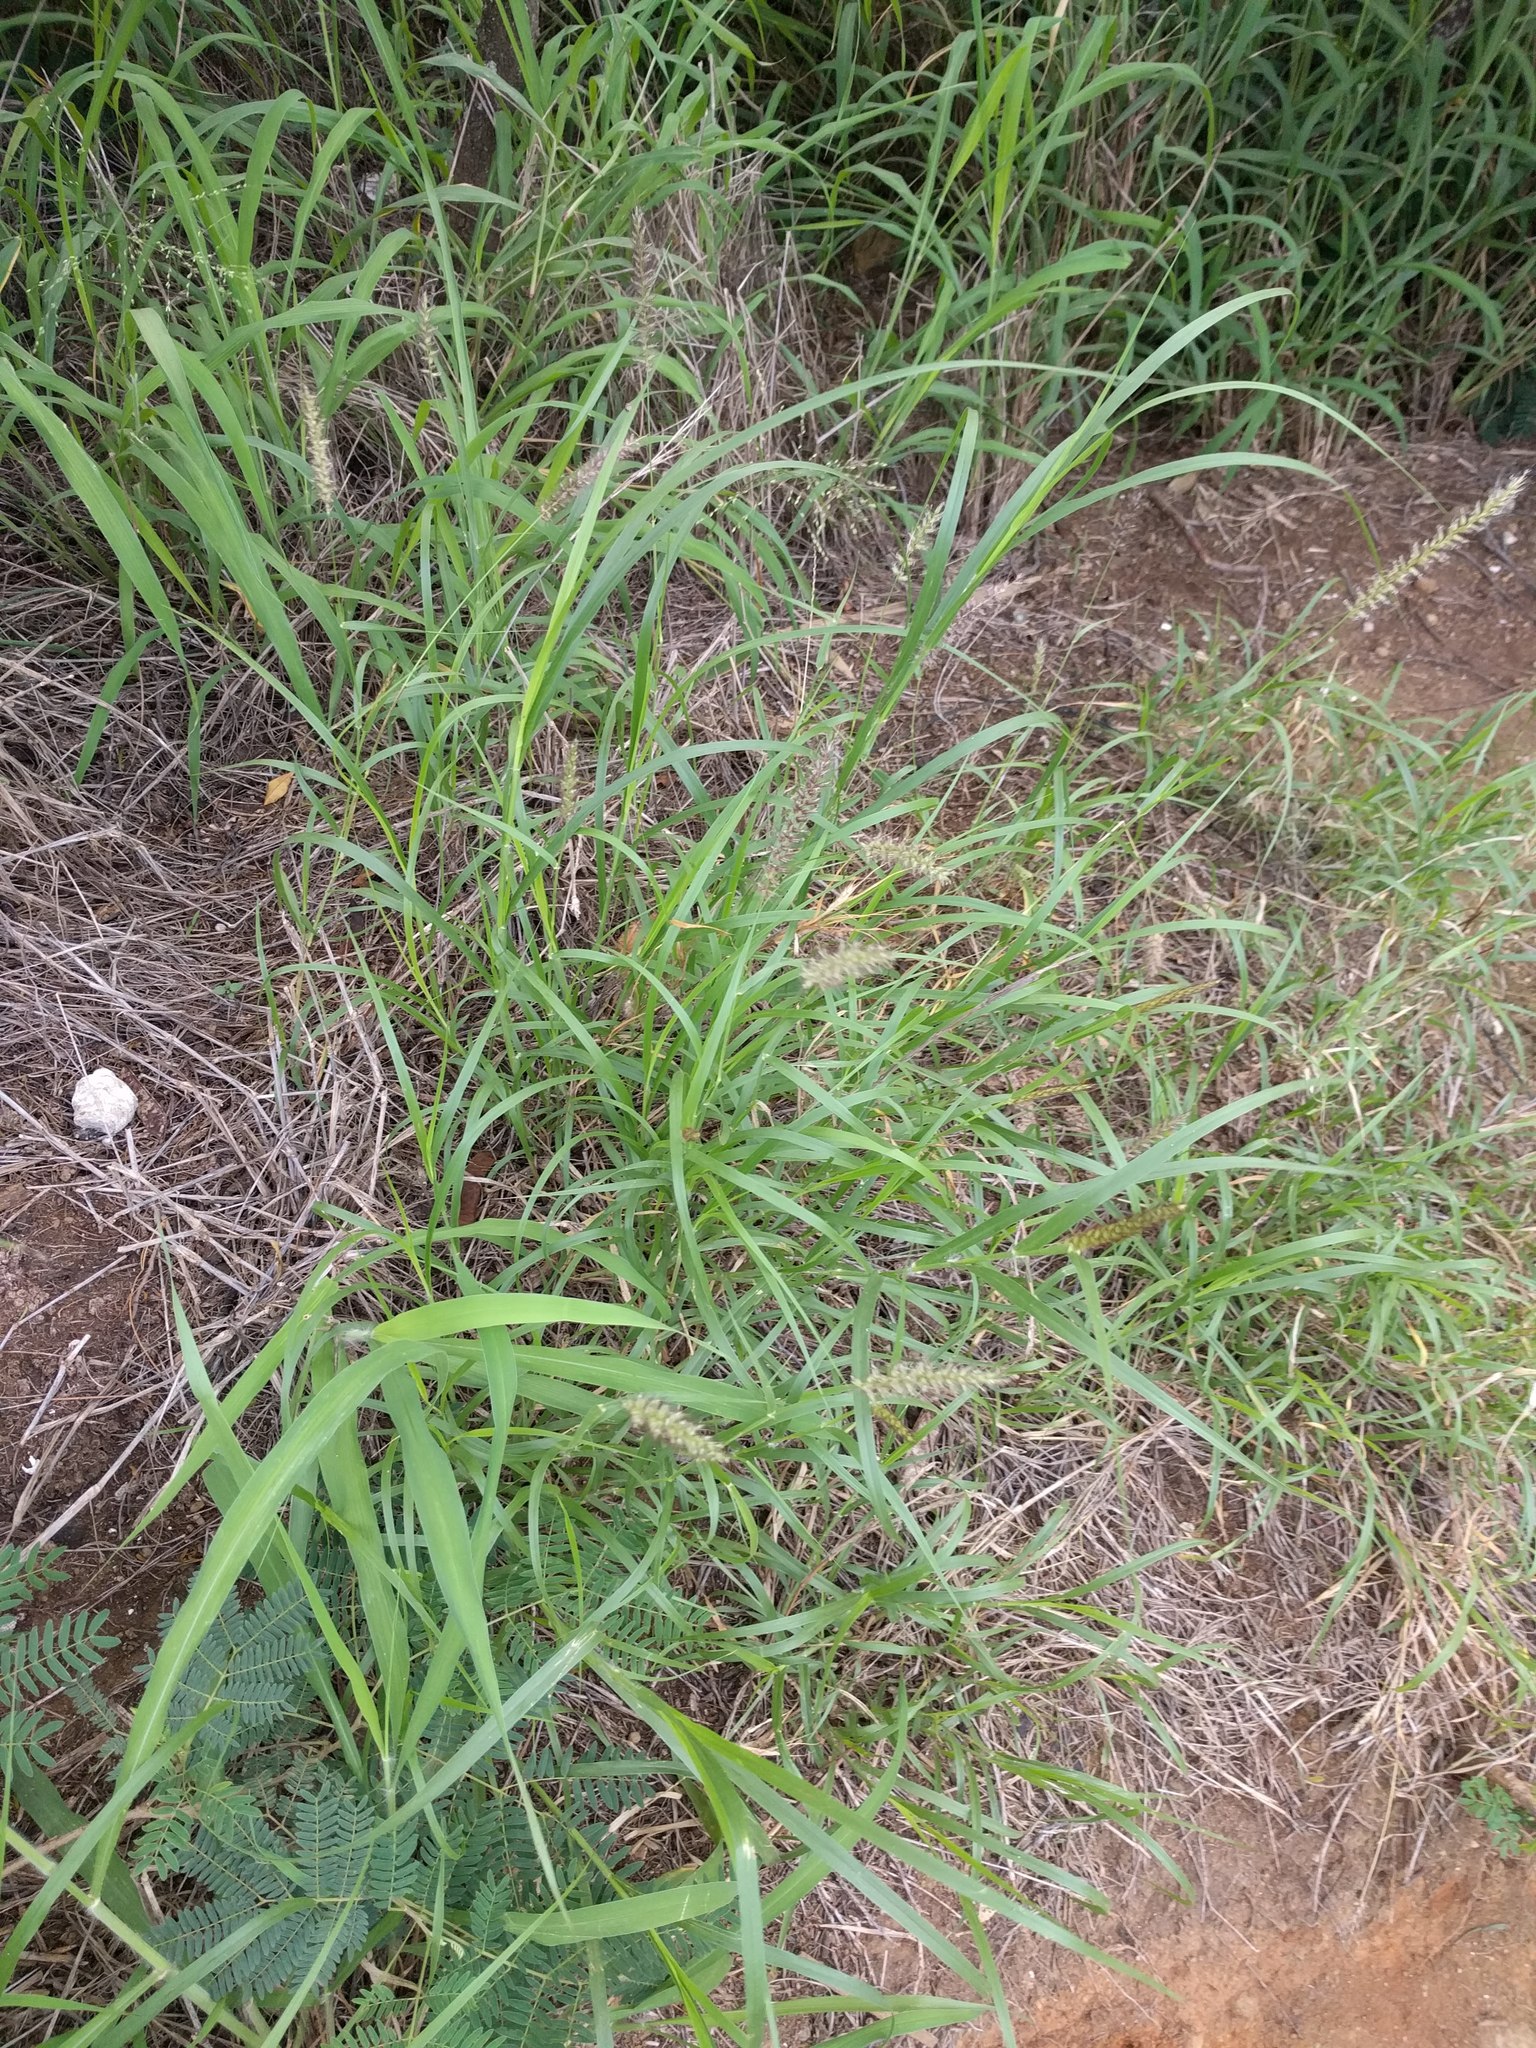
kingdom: Plantae
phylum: Tracheophyta
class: Liliopsida
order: Poales
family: Poaceae
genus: Cenchrus
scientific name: Cenchrus ciliaris
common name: Buffelgrass
